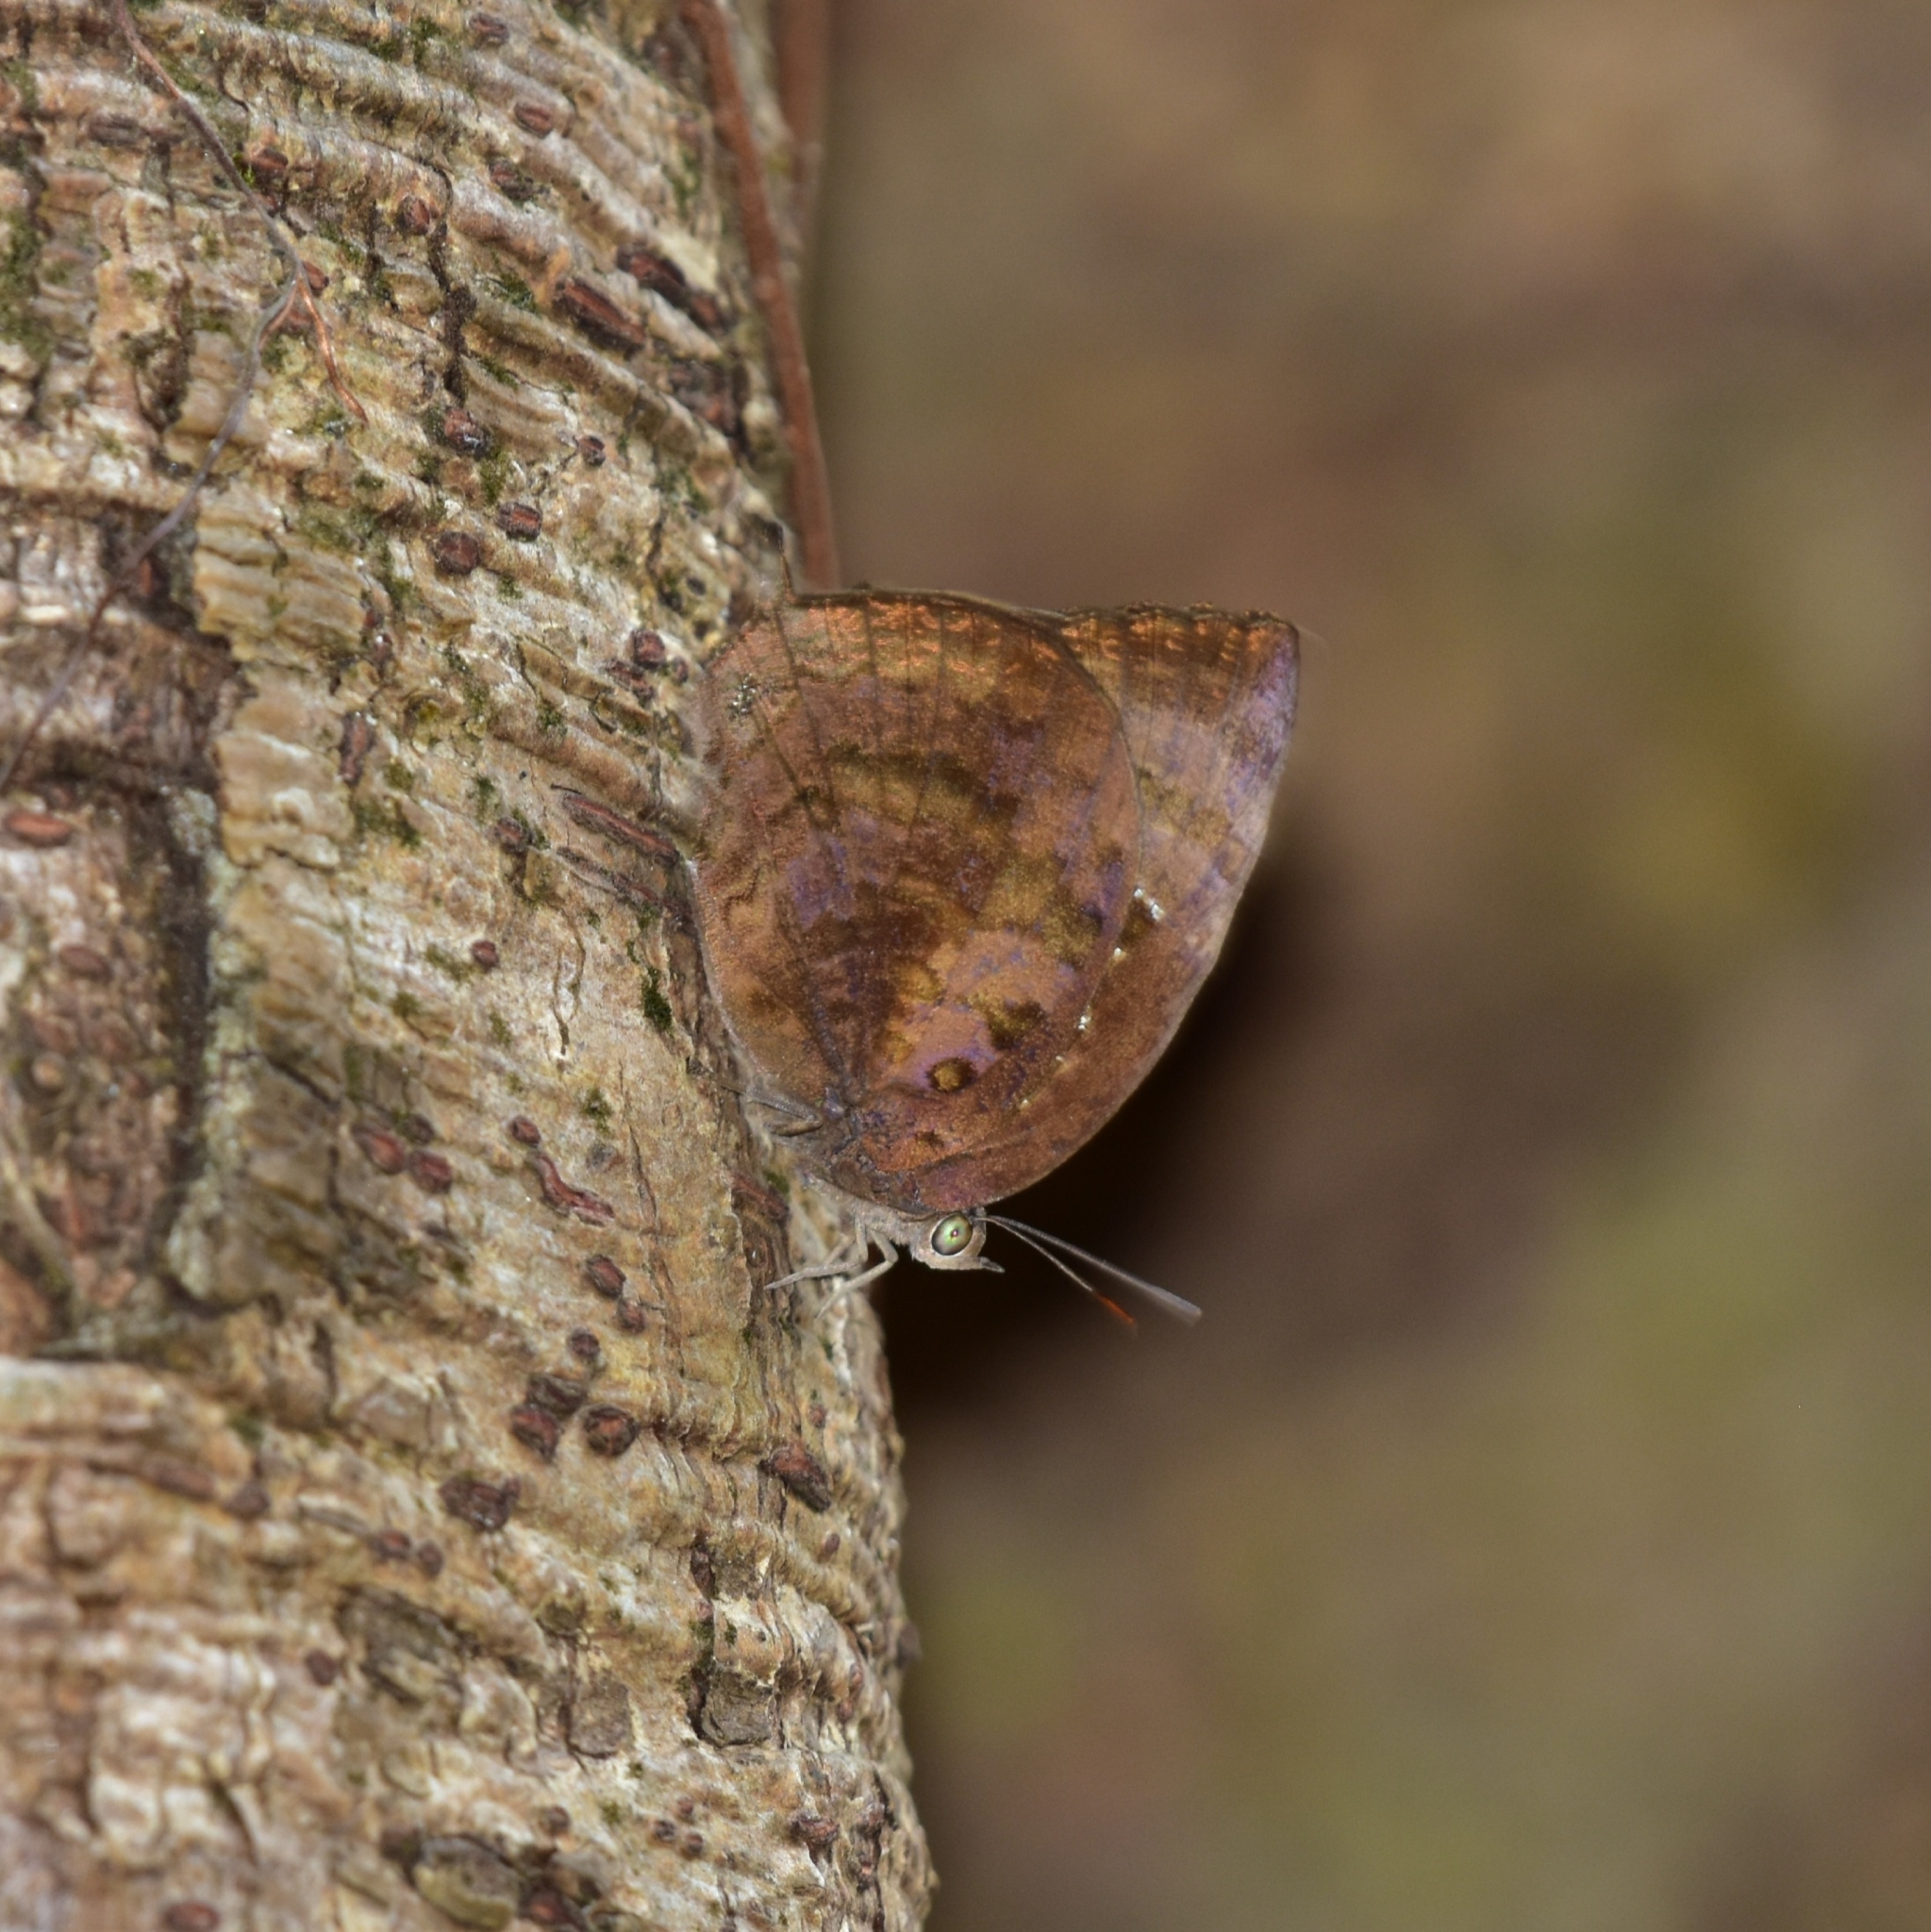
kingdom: Animalia
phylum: Arthropoda
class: Insecta
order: Lepidoptera
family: Lycaenidae
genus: Arhopala
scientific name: Arhopala centaurus
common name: Dull oak-blue
